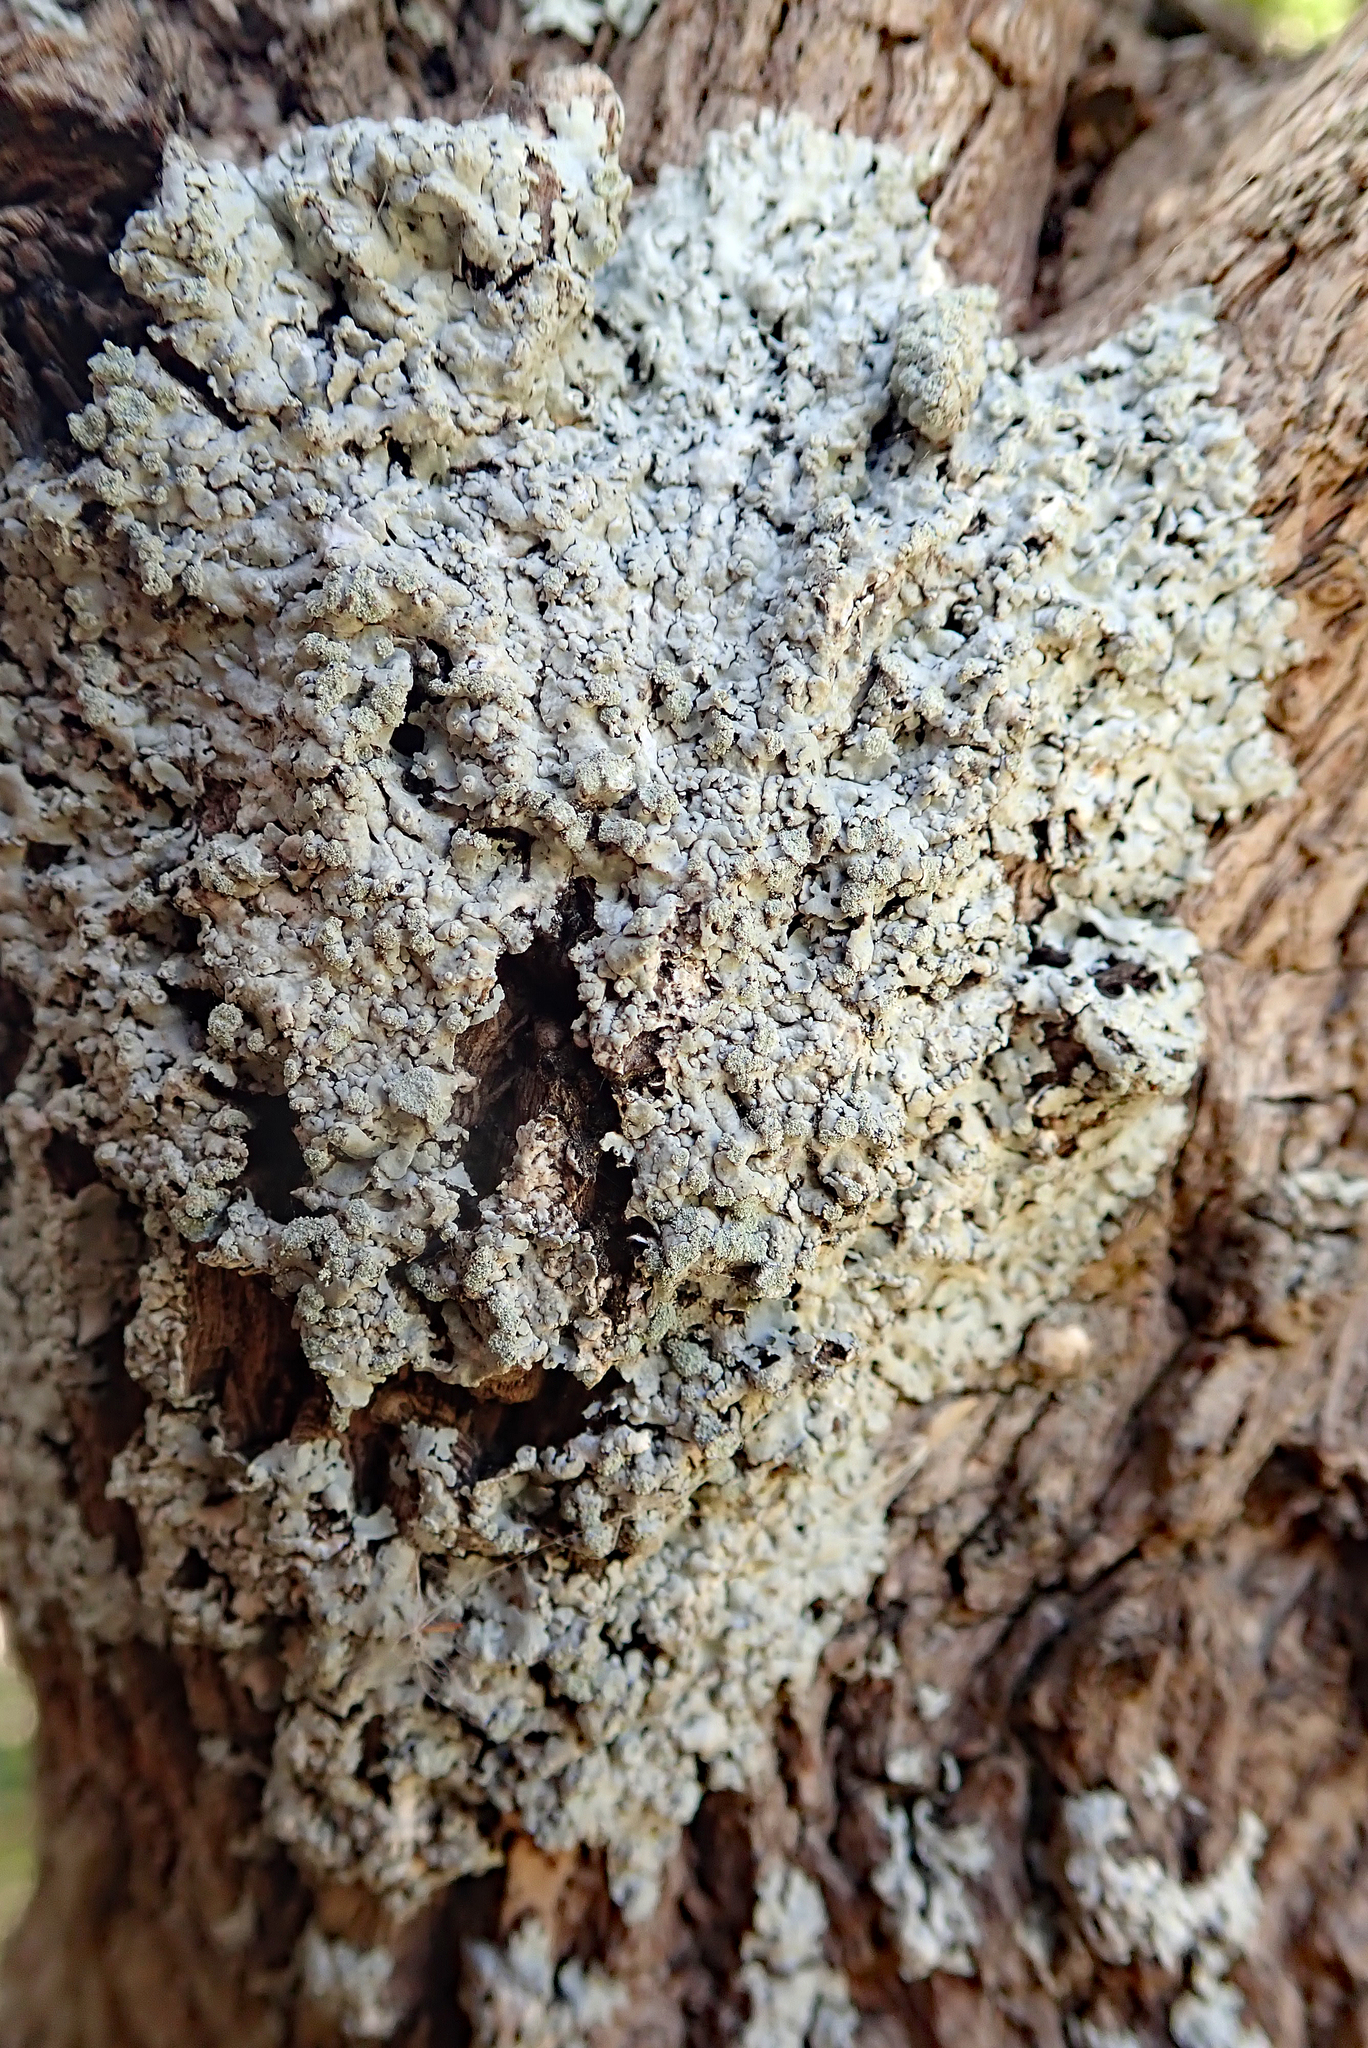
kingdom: Fungi
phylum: Ascomycota
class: Lecanoromycetes
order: Caliciales
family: Caliciaceae
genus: Dirinaria
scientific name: Dirinaria applanata
